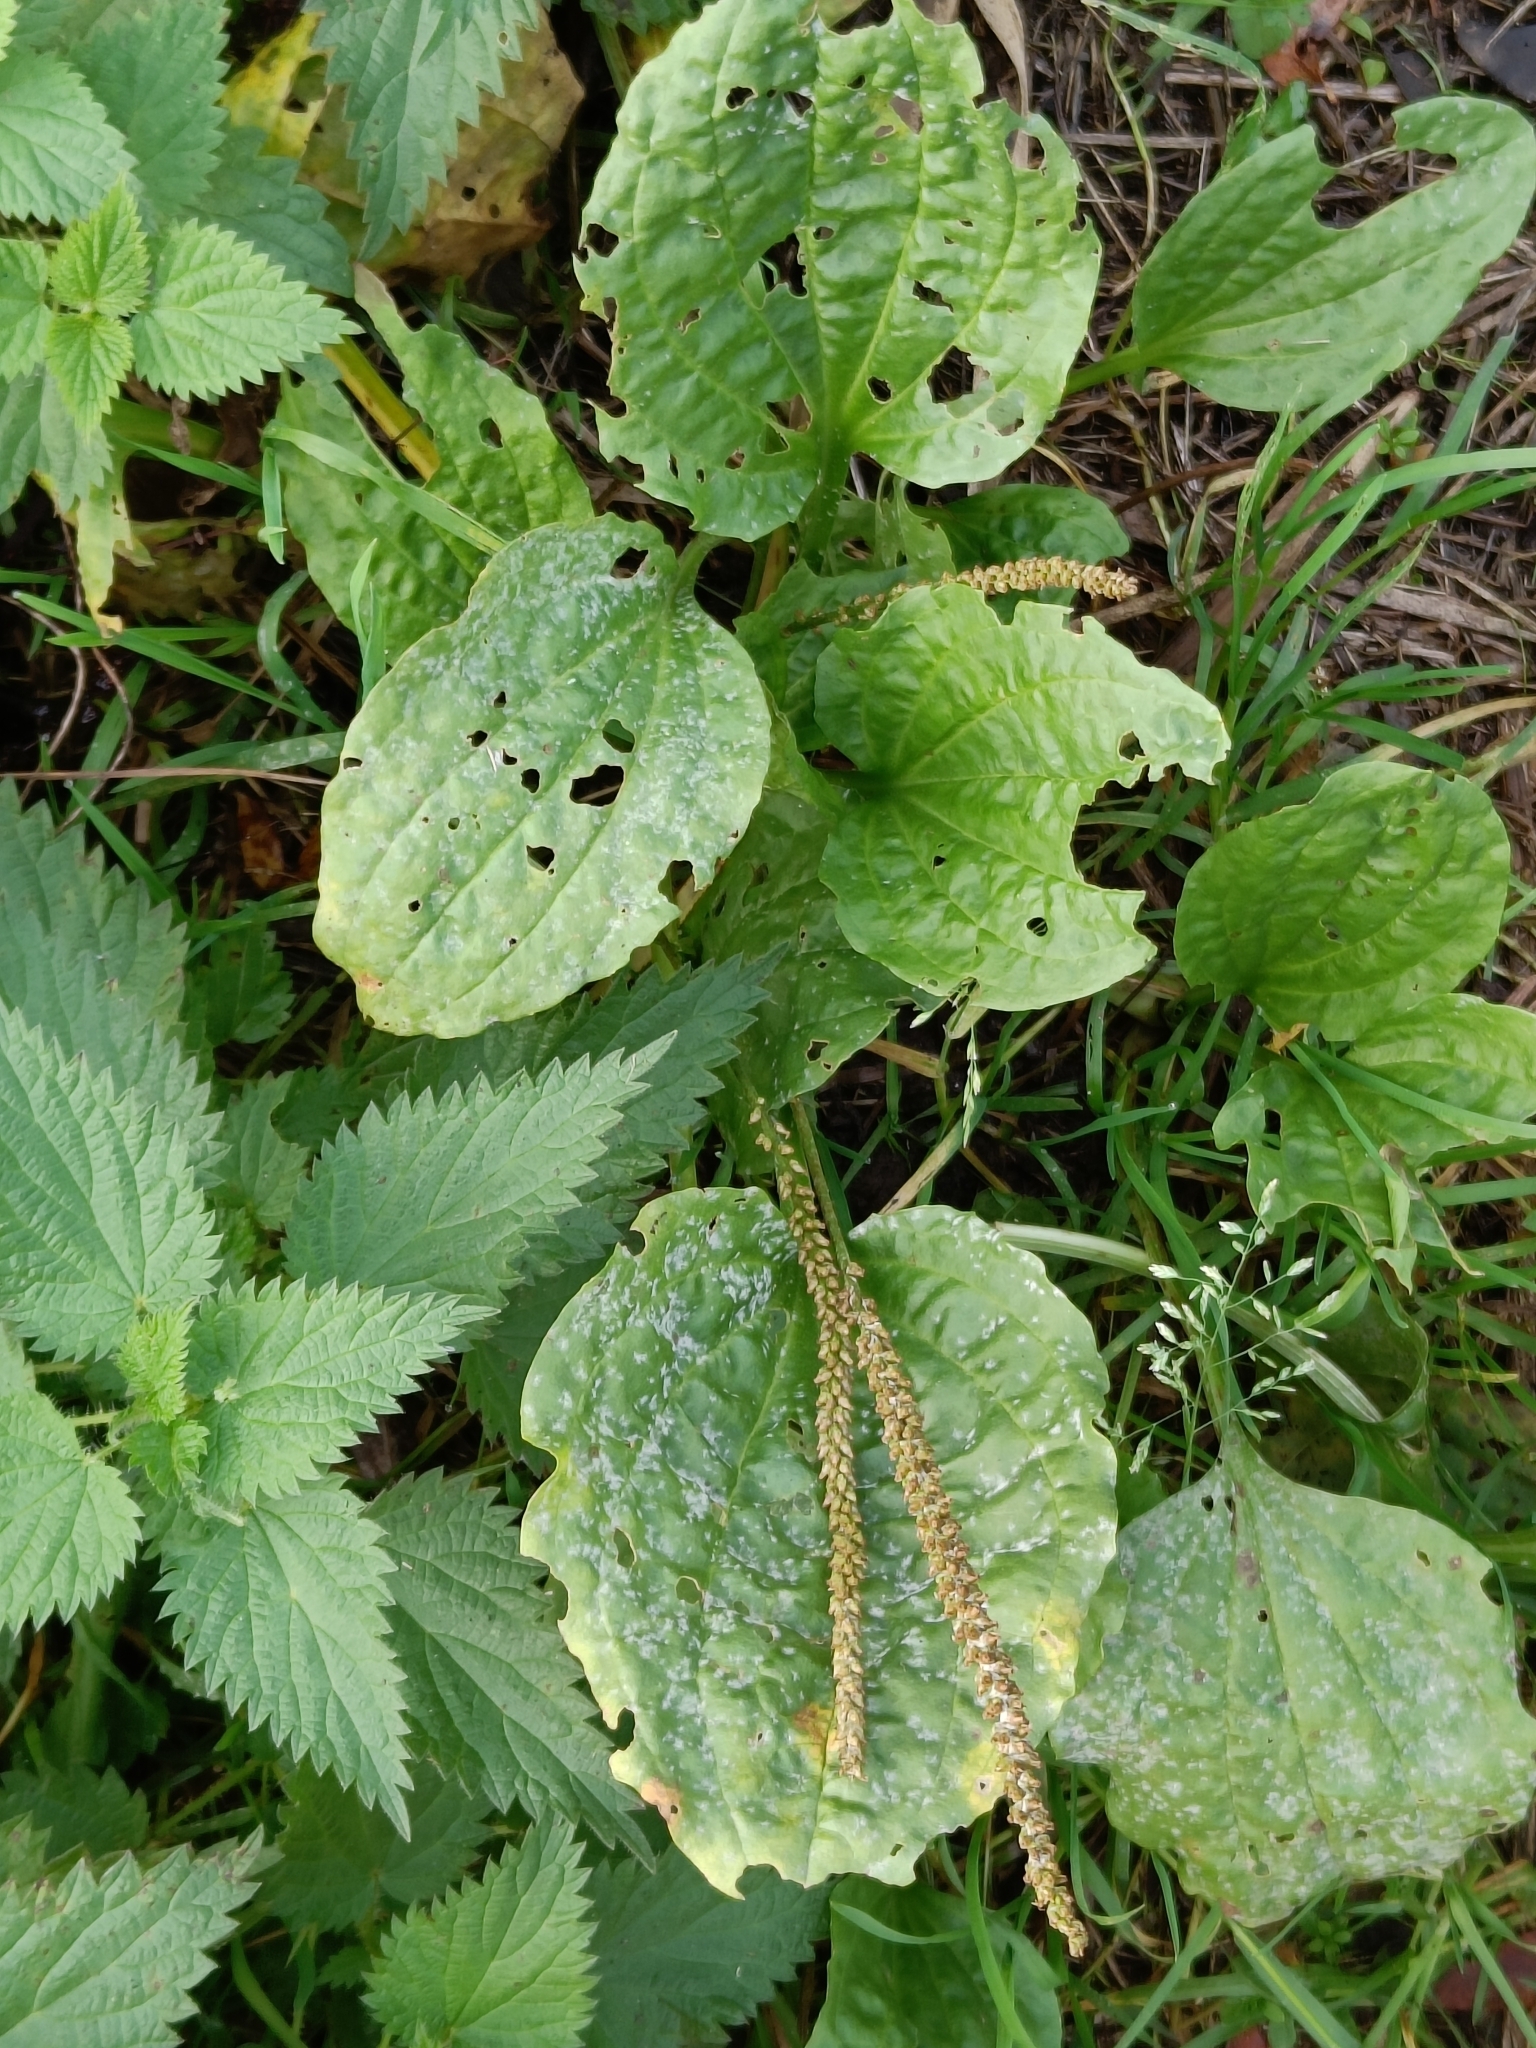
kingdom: Plantae
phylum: Tracheophyta
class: Magnoliopsida
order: Lamiales
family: Plantaginaceae
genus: Plantago
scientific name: Plantago major
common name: Common plantain
